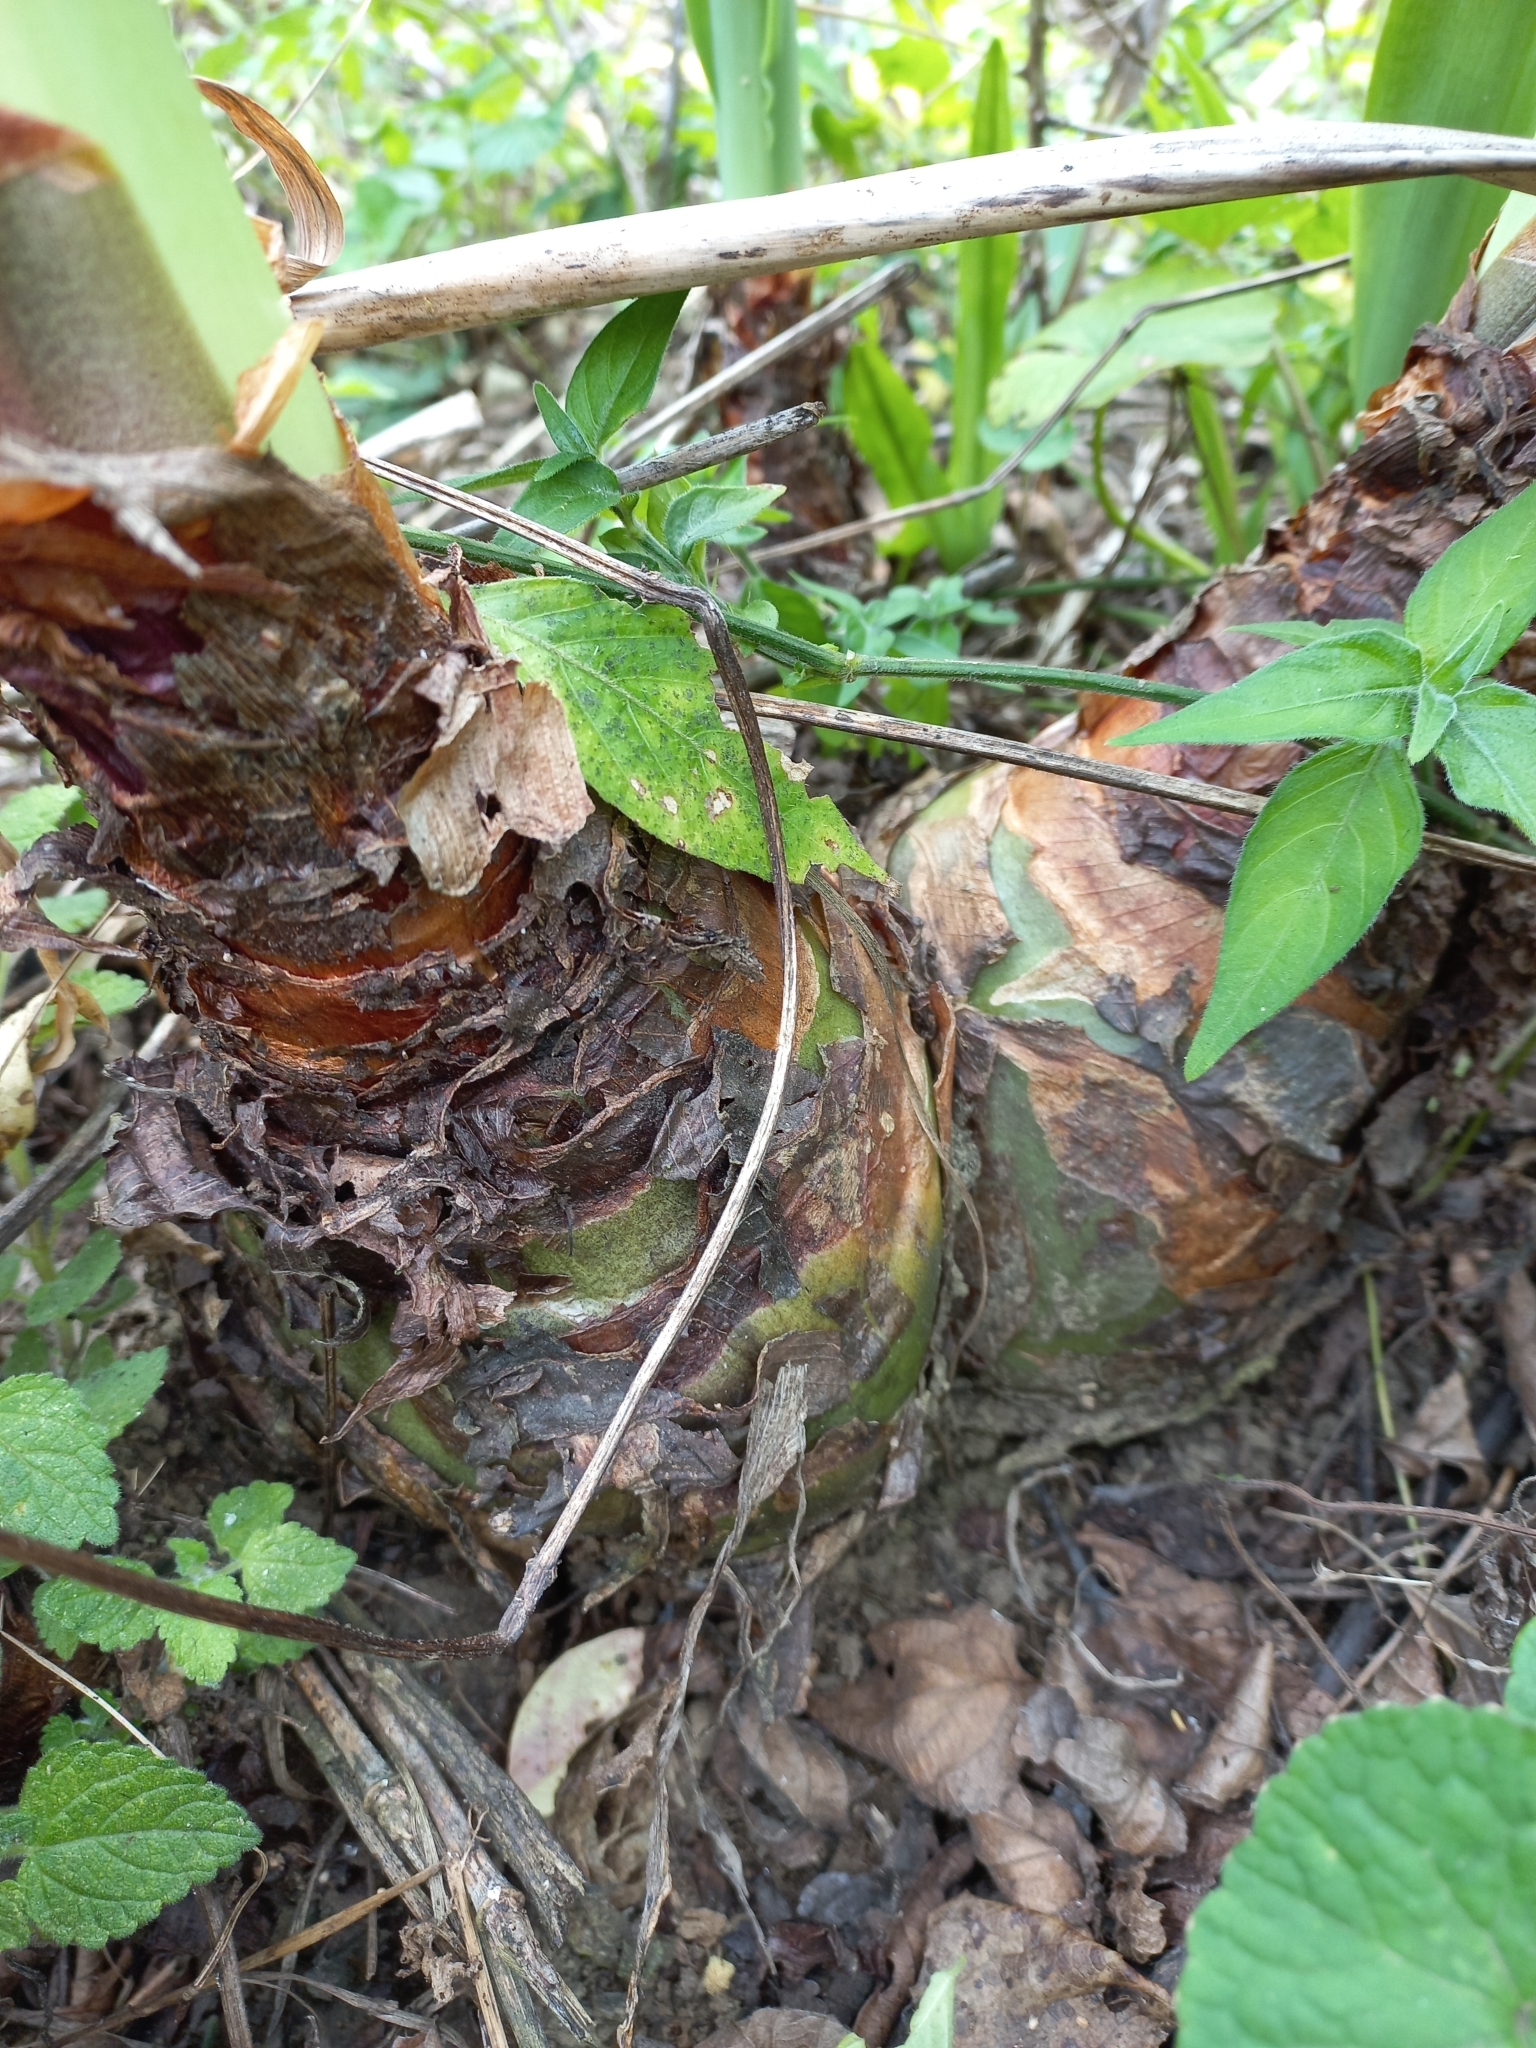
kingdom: Plantae
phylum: Tracheophyta
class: Liliopsida
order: Asparagales
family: Asparagaceae
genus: Drimia
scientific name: Drimia elata
